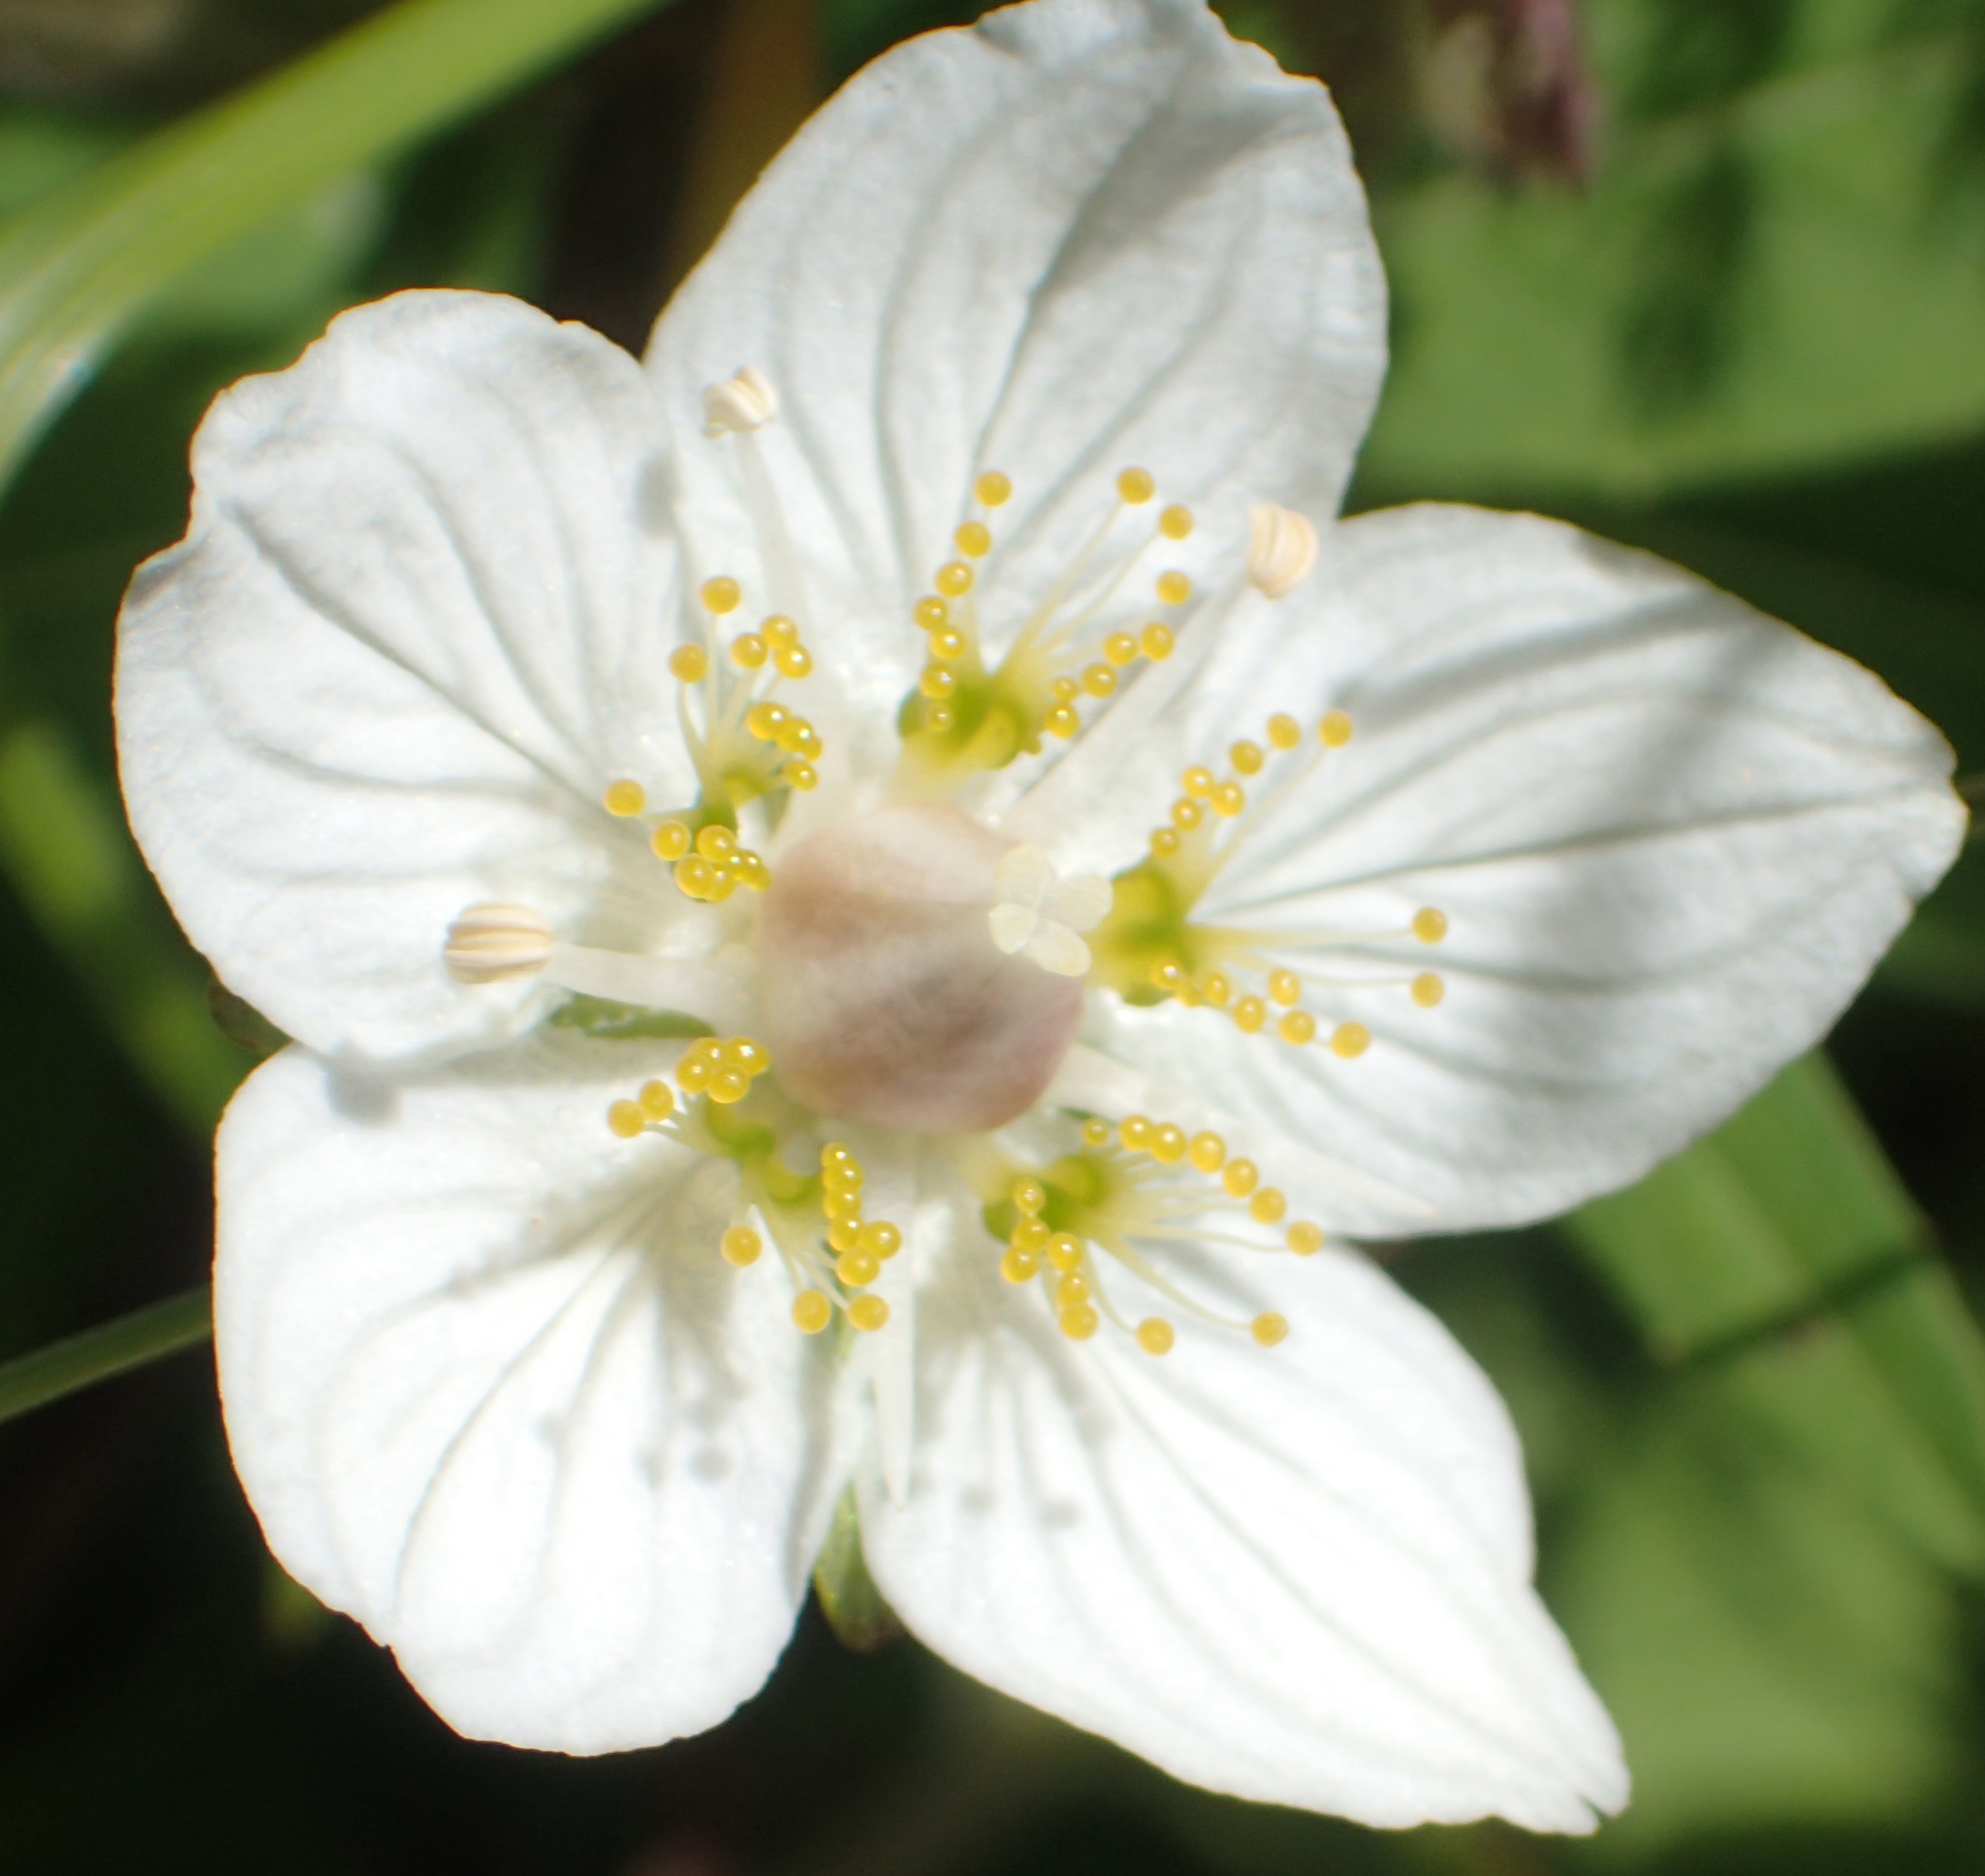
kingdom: Plantae
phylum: Tracheophyta
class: Magnoliopsida
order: Celastrales
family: Parnassiaceae
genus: Parnassia
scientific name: Parnassia palustris
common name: Grass-of-parnassus
